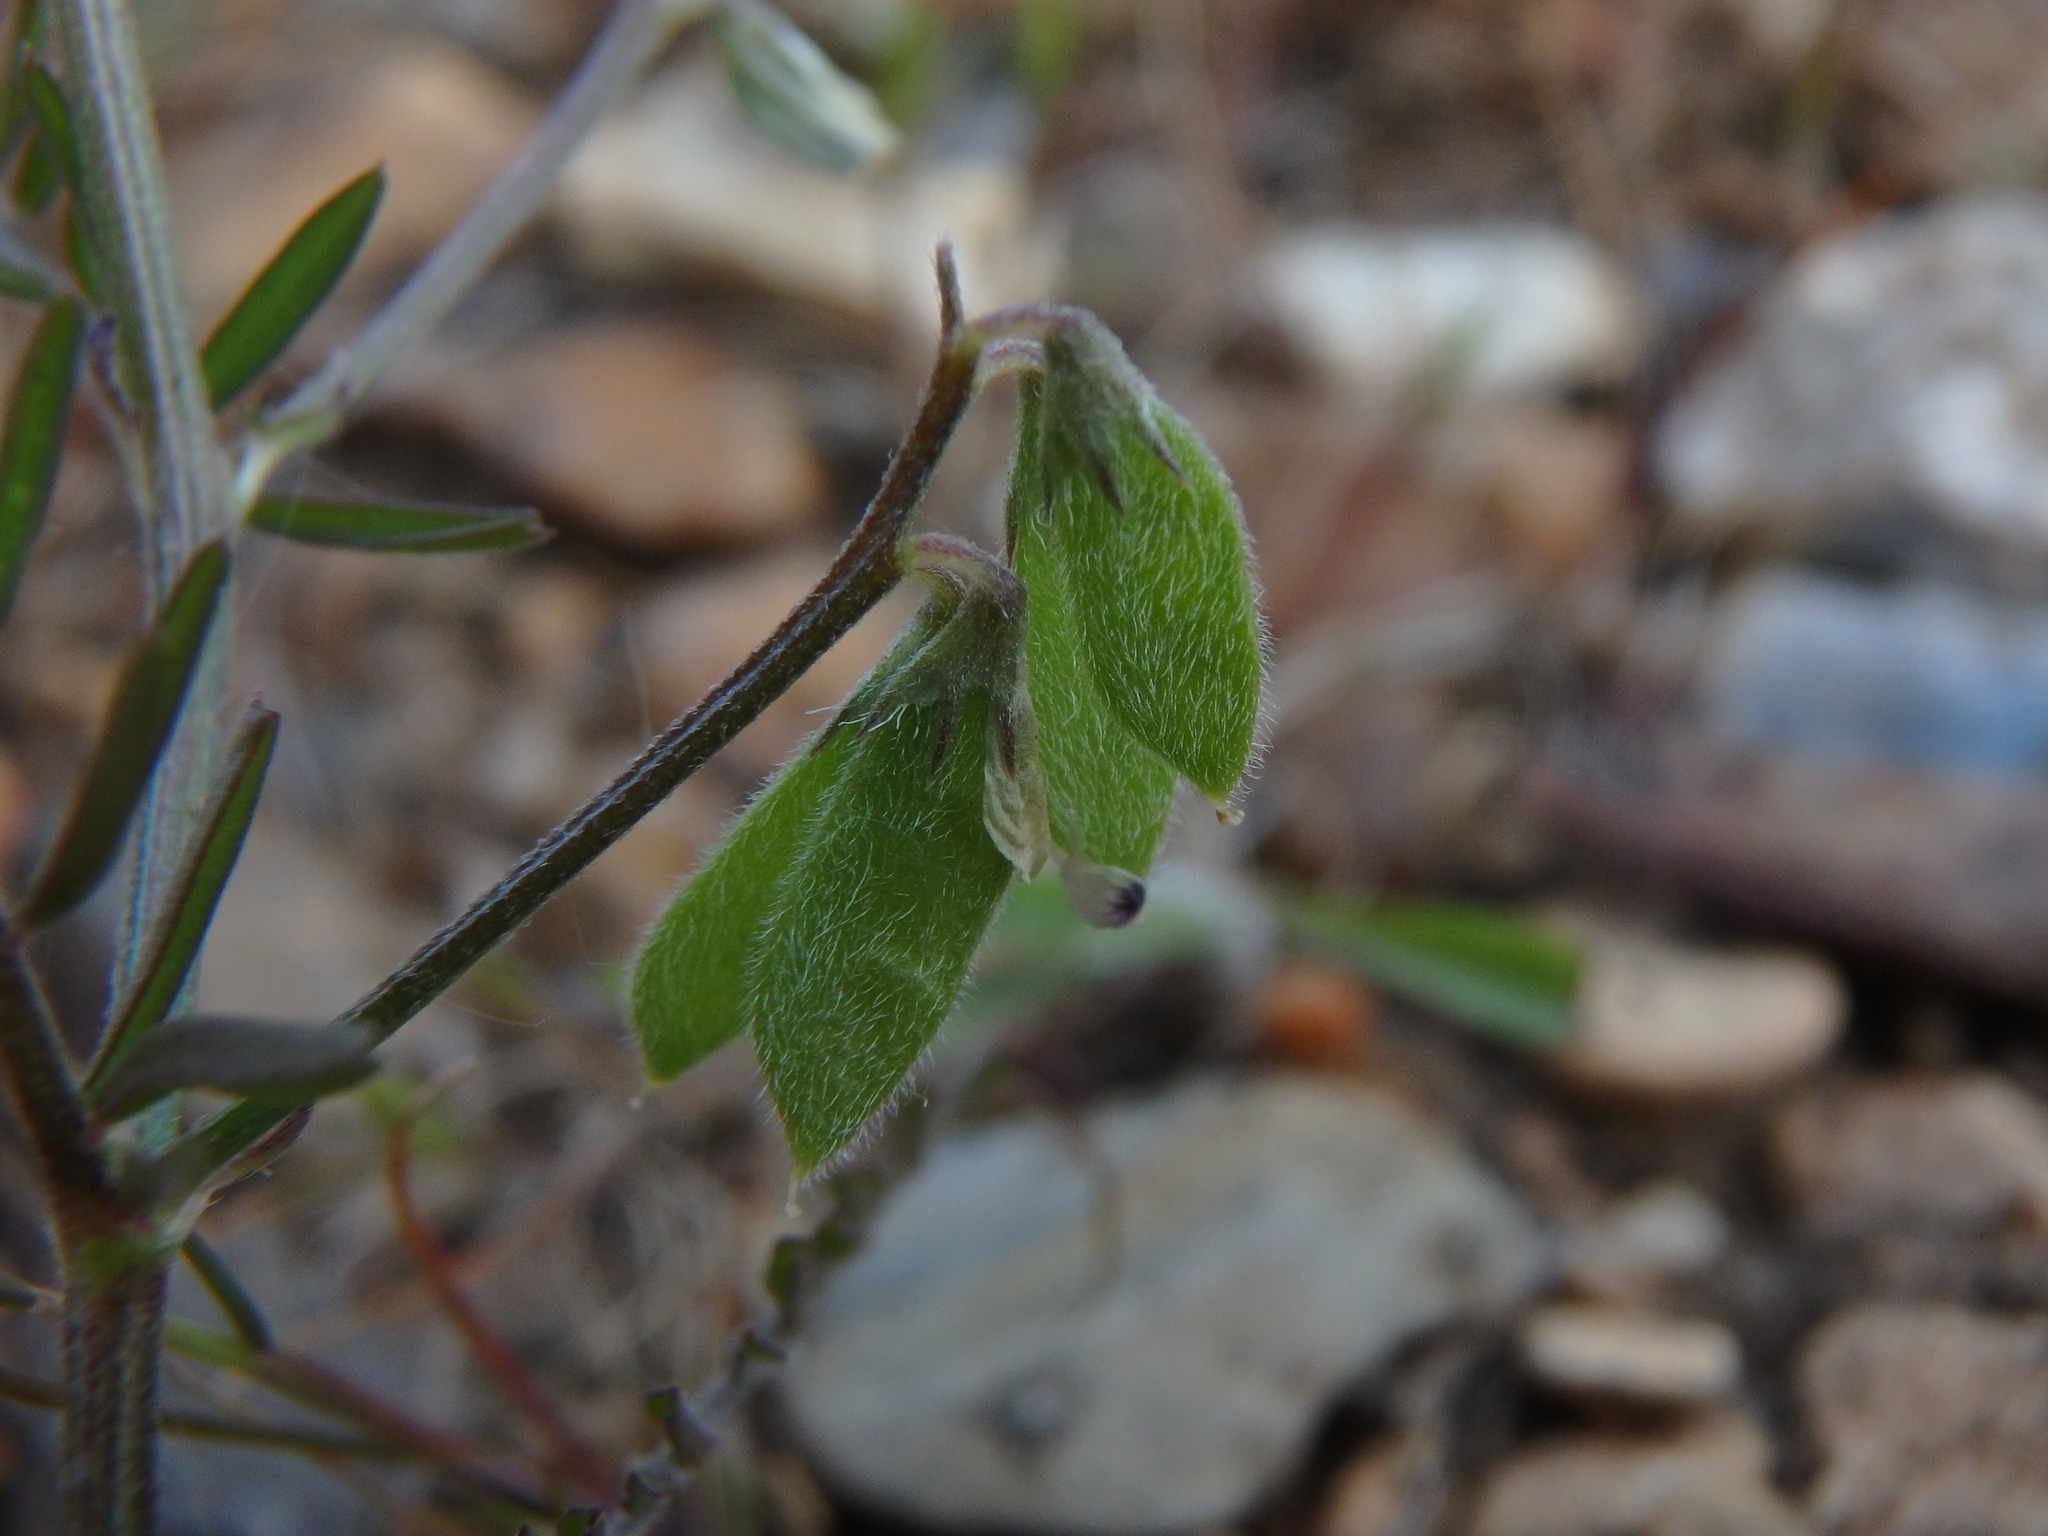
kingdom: Plantae
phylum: Tracheophyta
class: Magnoliopsida
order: Fabales
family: Fabaceae
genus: Vicia
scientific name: Vicia hirsuta
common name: Tiny vetch
